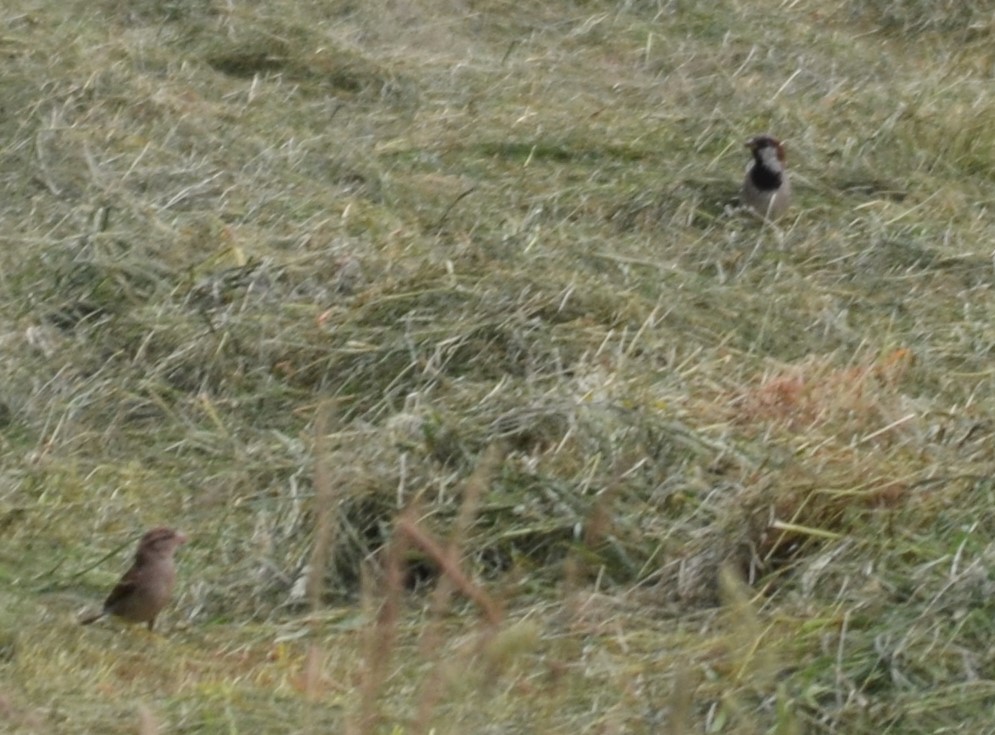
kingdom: Animalia
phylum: Chordata
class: Aves
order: Passeriformes
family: Passeridae
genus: Passer
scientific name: Passer domesticus
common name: House sparrow
